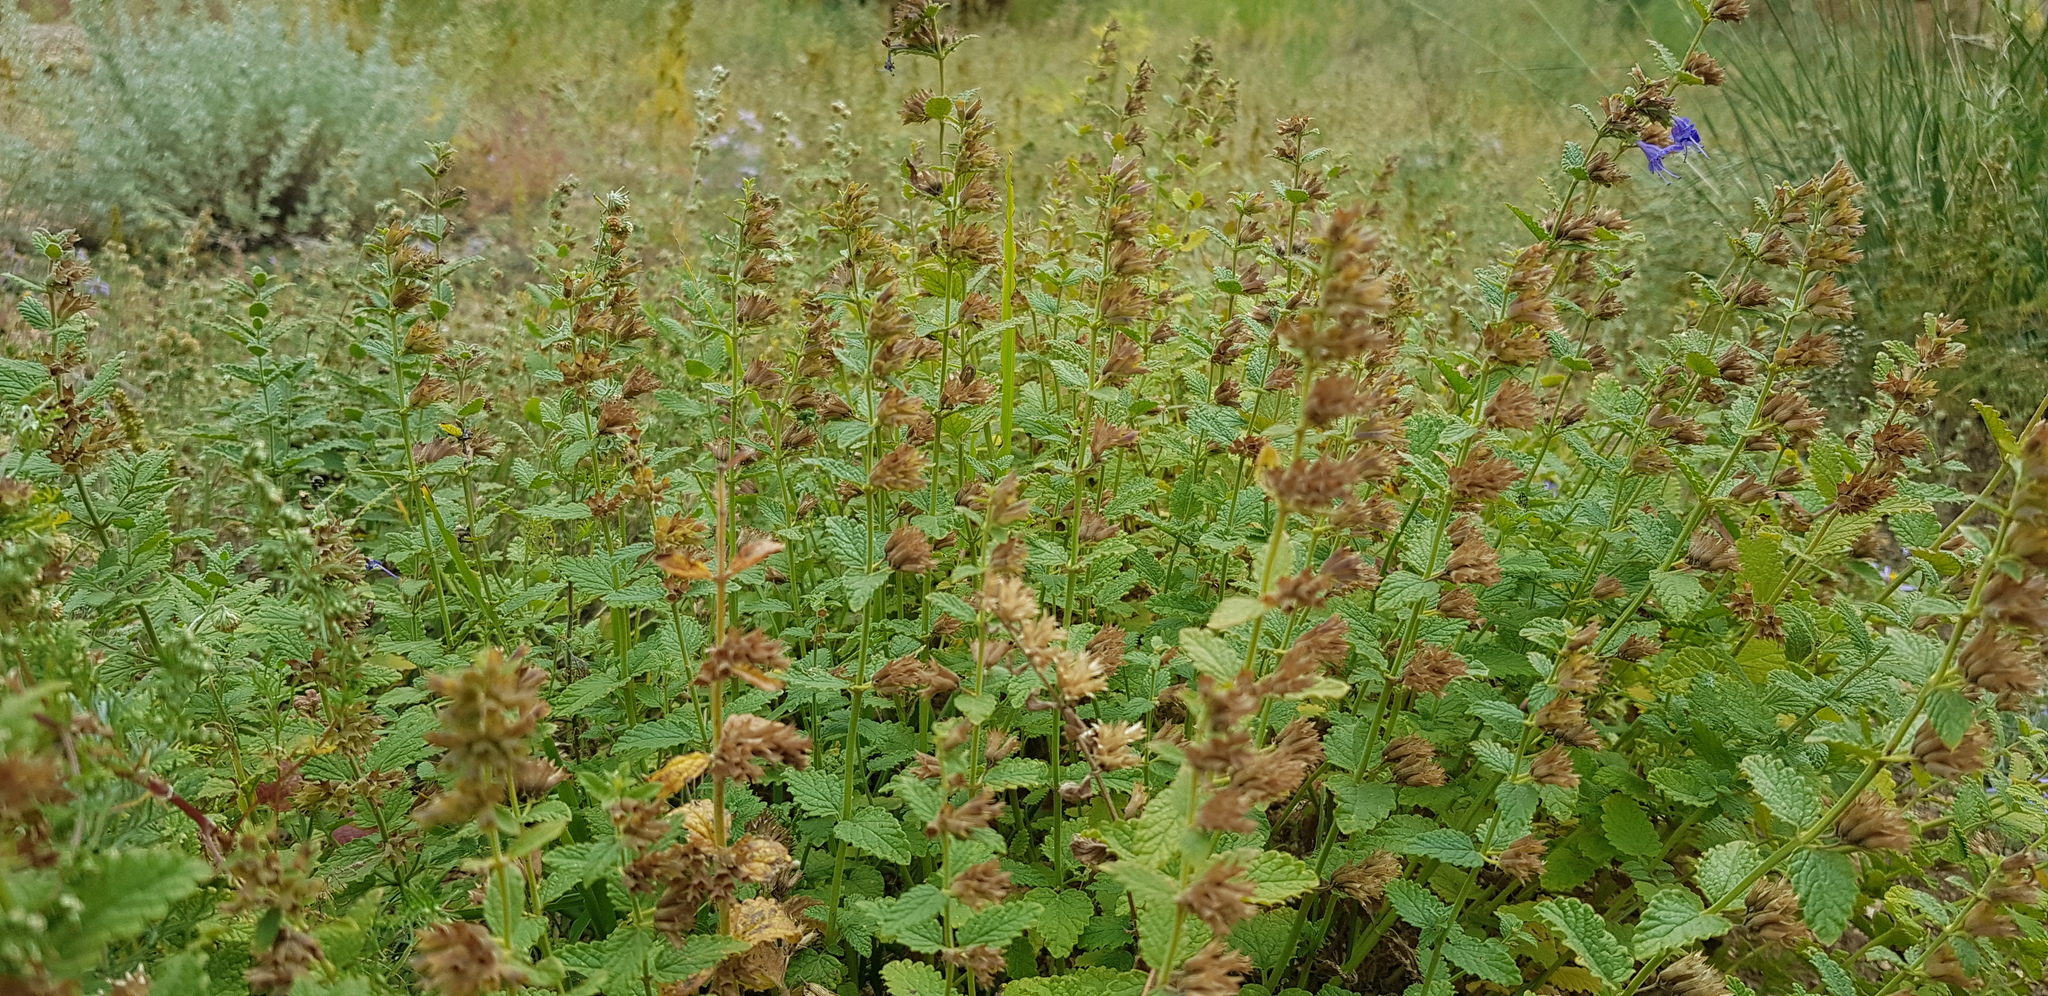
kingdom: Plantae
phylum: Tracheophyta
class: Magnoliopsida
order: Lamiales
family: Lamiaceae
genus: Nepeta
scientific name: Nepeta lophanthus
